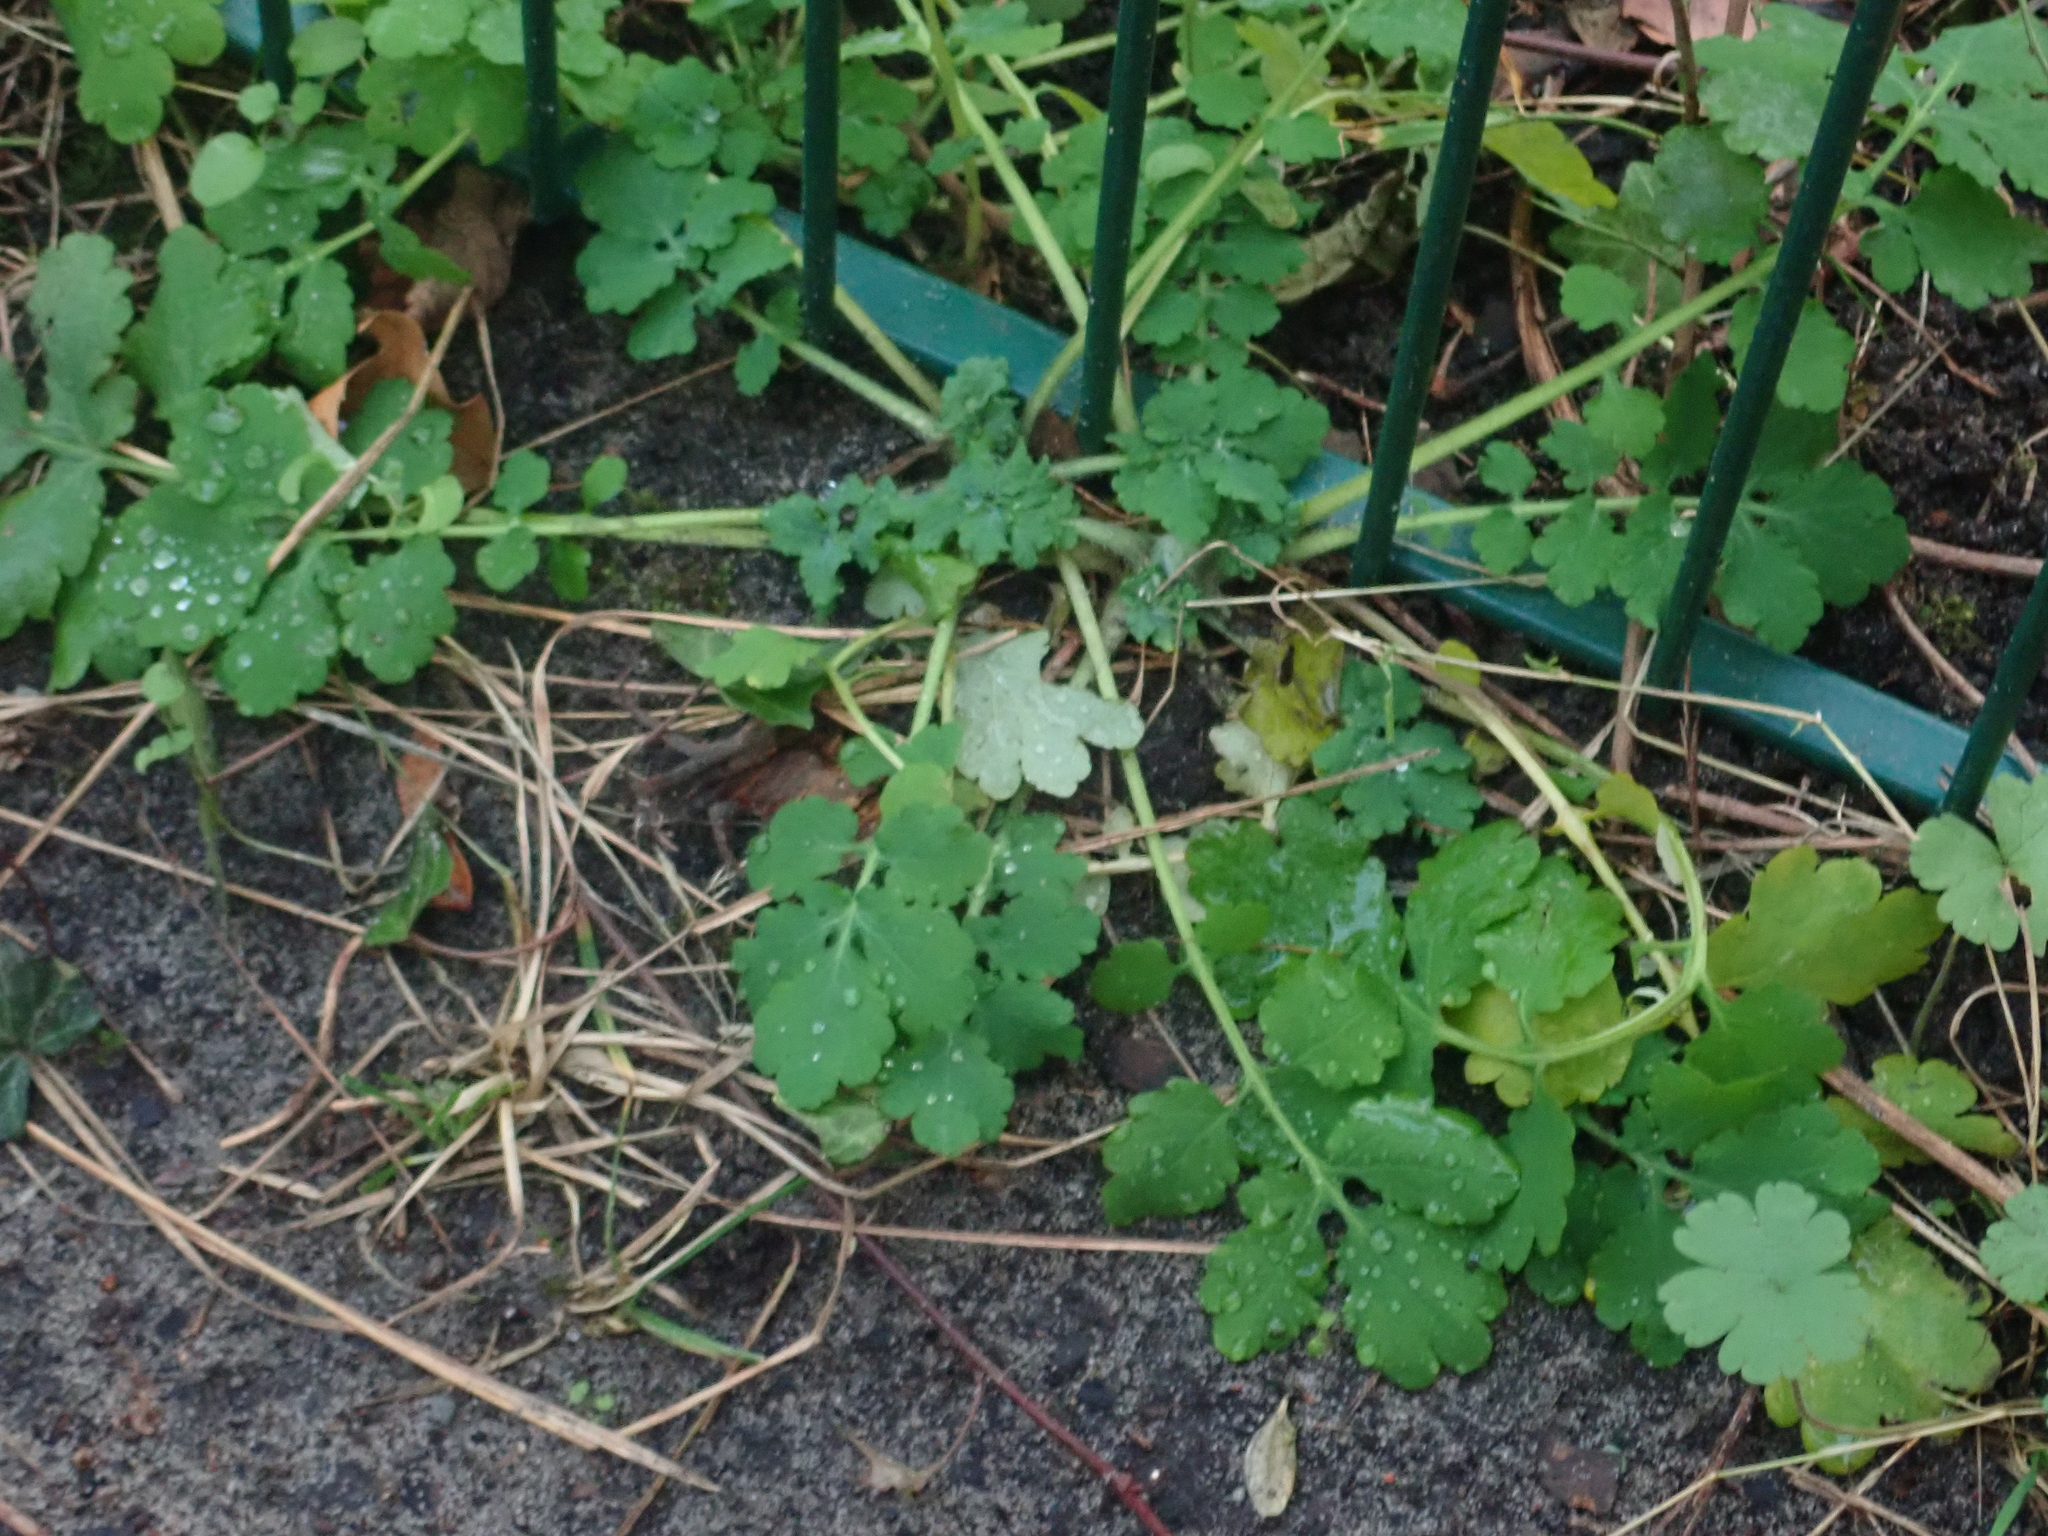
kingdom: Plantae
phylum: Tracheophyta
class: Magnoliopsida
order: Ranunculales
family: Papaveraceae
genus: Chelidonium
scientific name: Chelidonium majus
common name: Greater celandine
